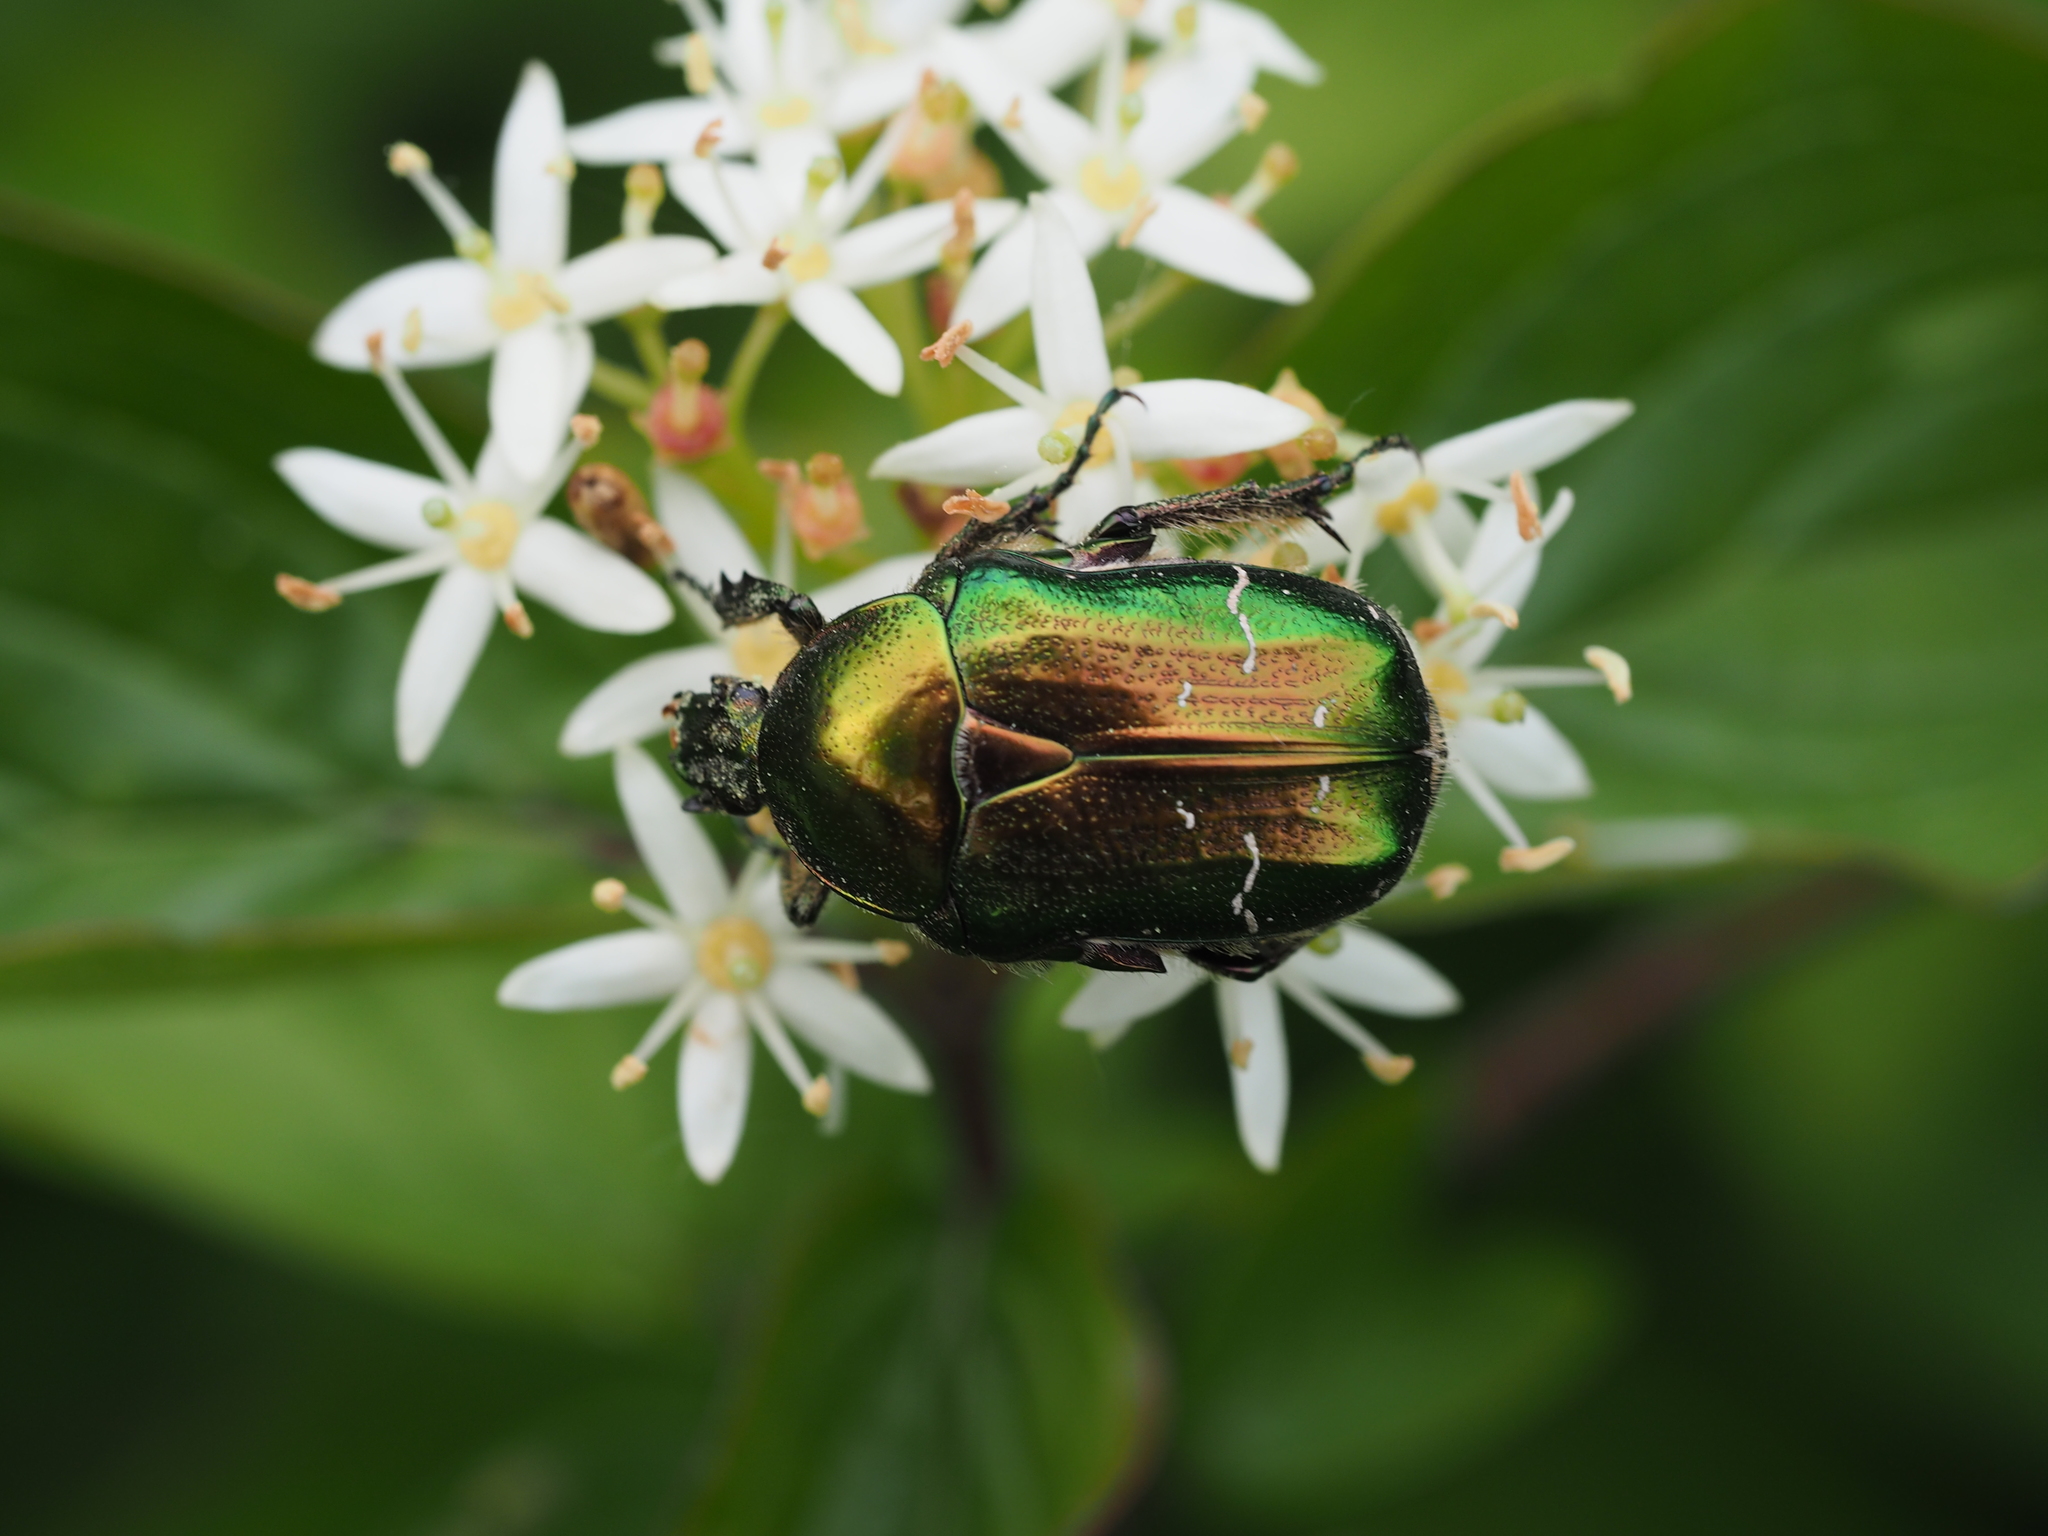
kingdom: Animalia
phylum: Arthropoda
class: Insecta
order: Coleoptera
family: Scarabaeidae
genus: Cetonia
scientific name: Cetonia aurata
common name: Rose chafer
